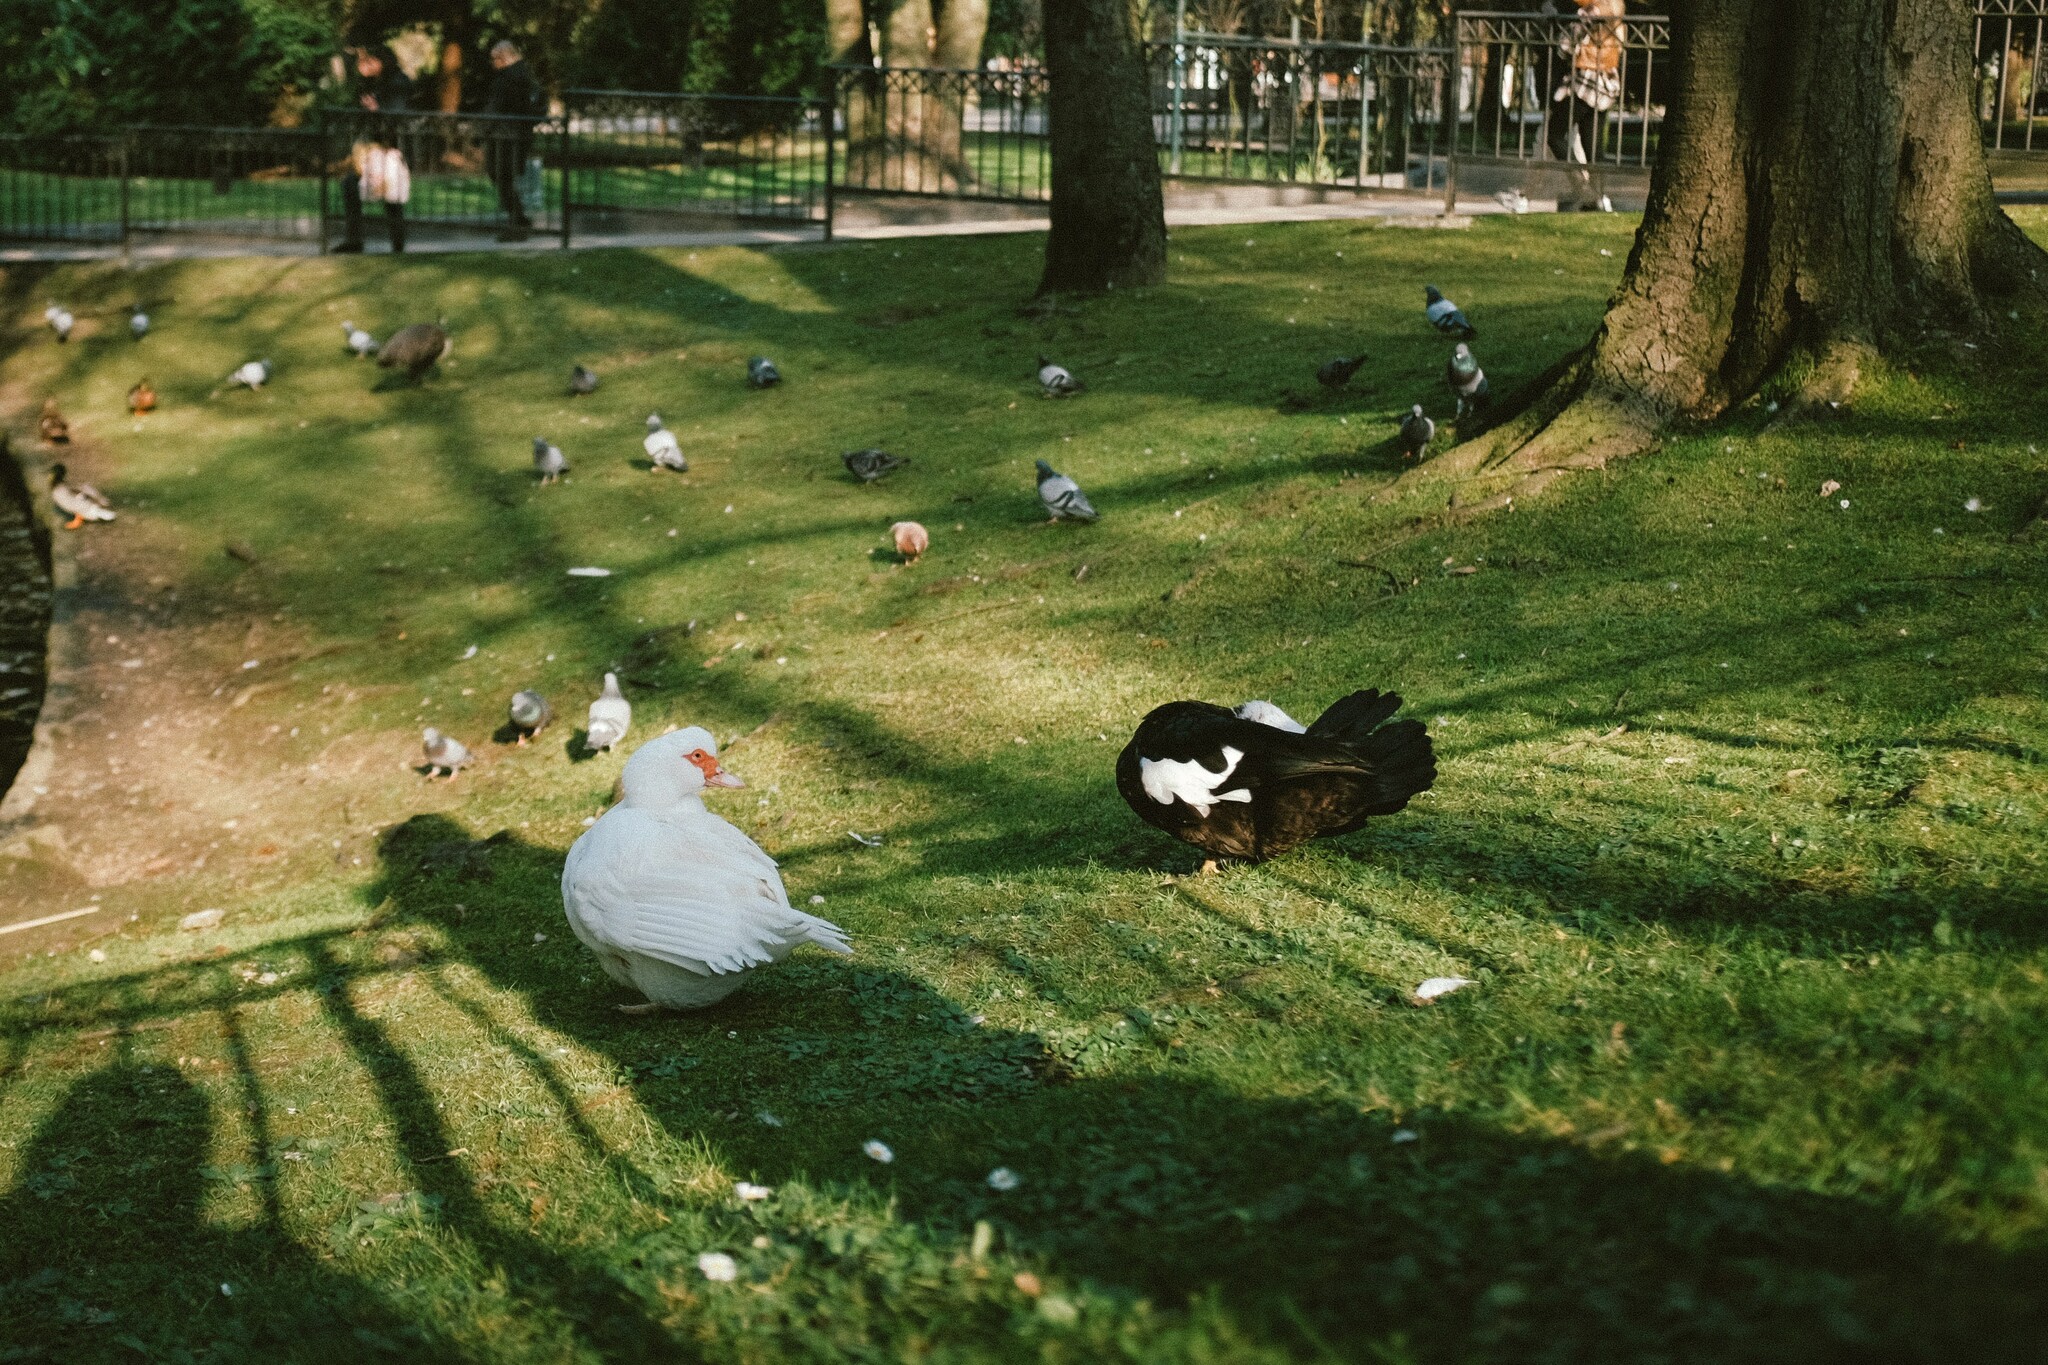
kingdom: Animalia
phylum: Chordata
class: Aves
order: Anseriformes
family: Anatidae
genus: Cairina
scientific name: Cairina moschata
